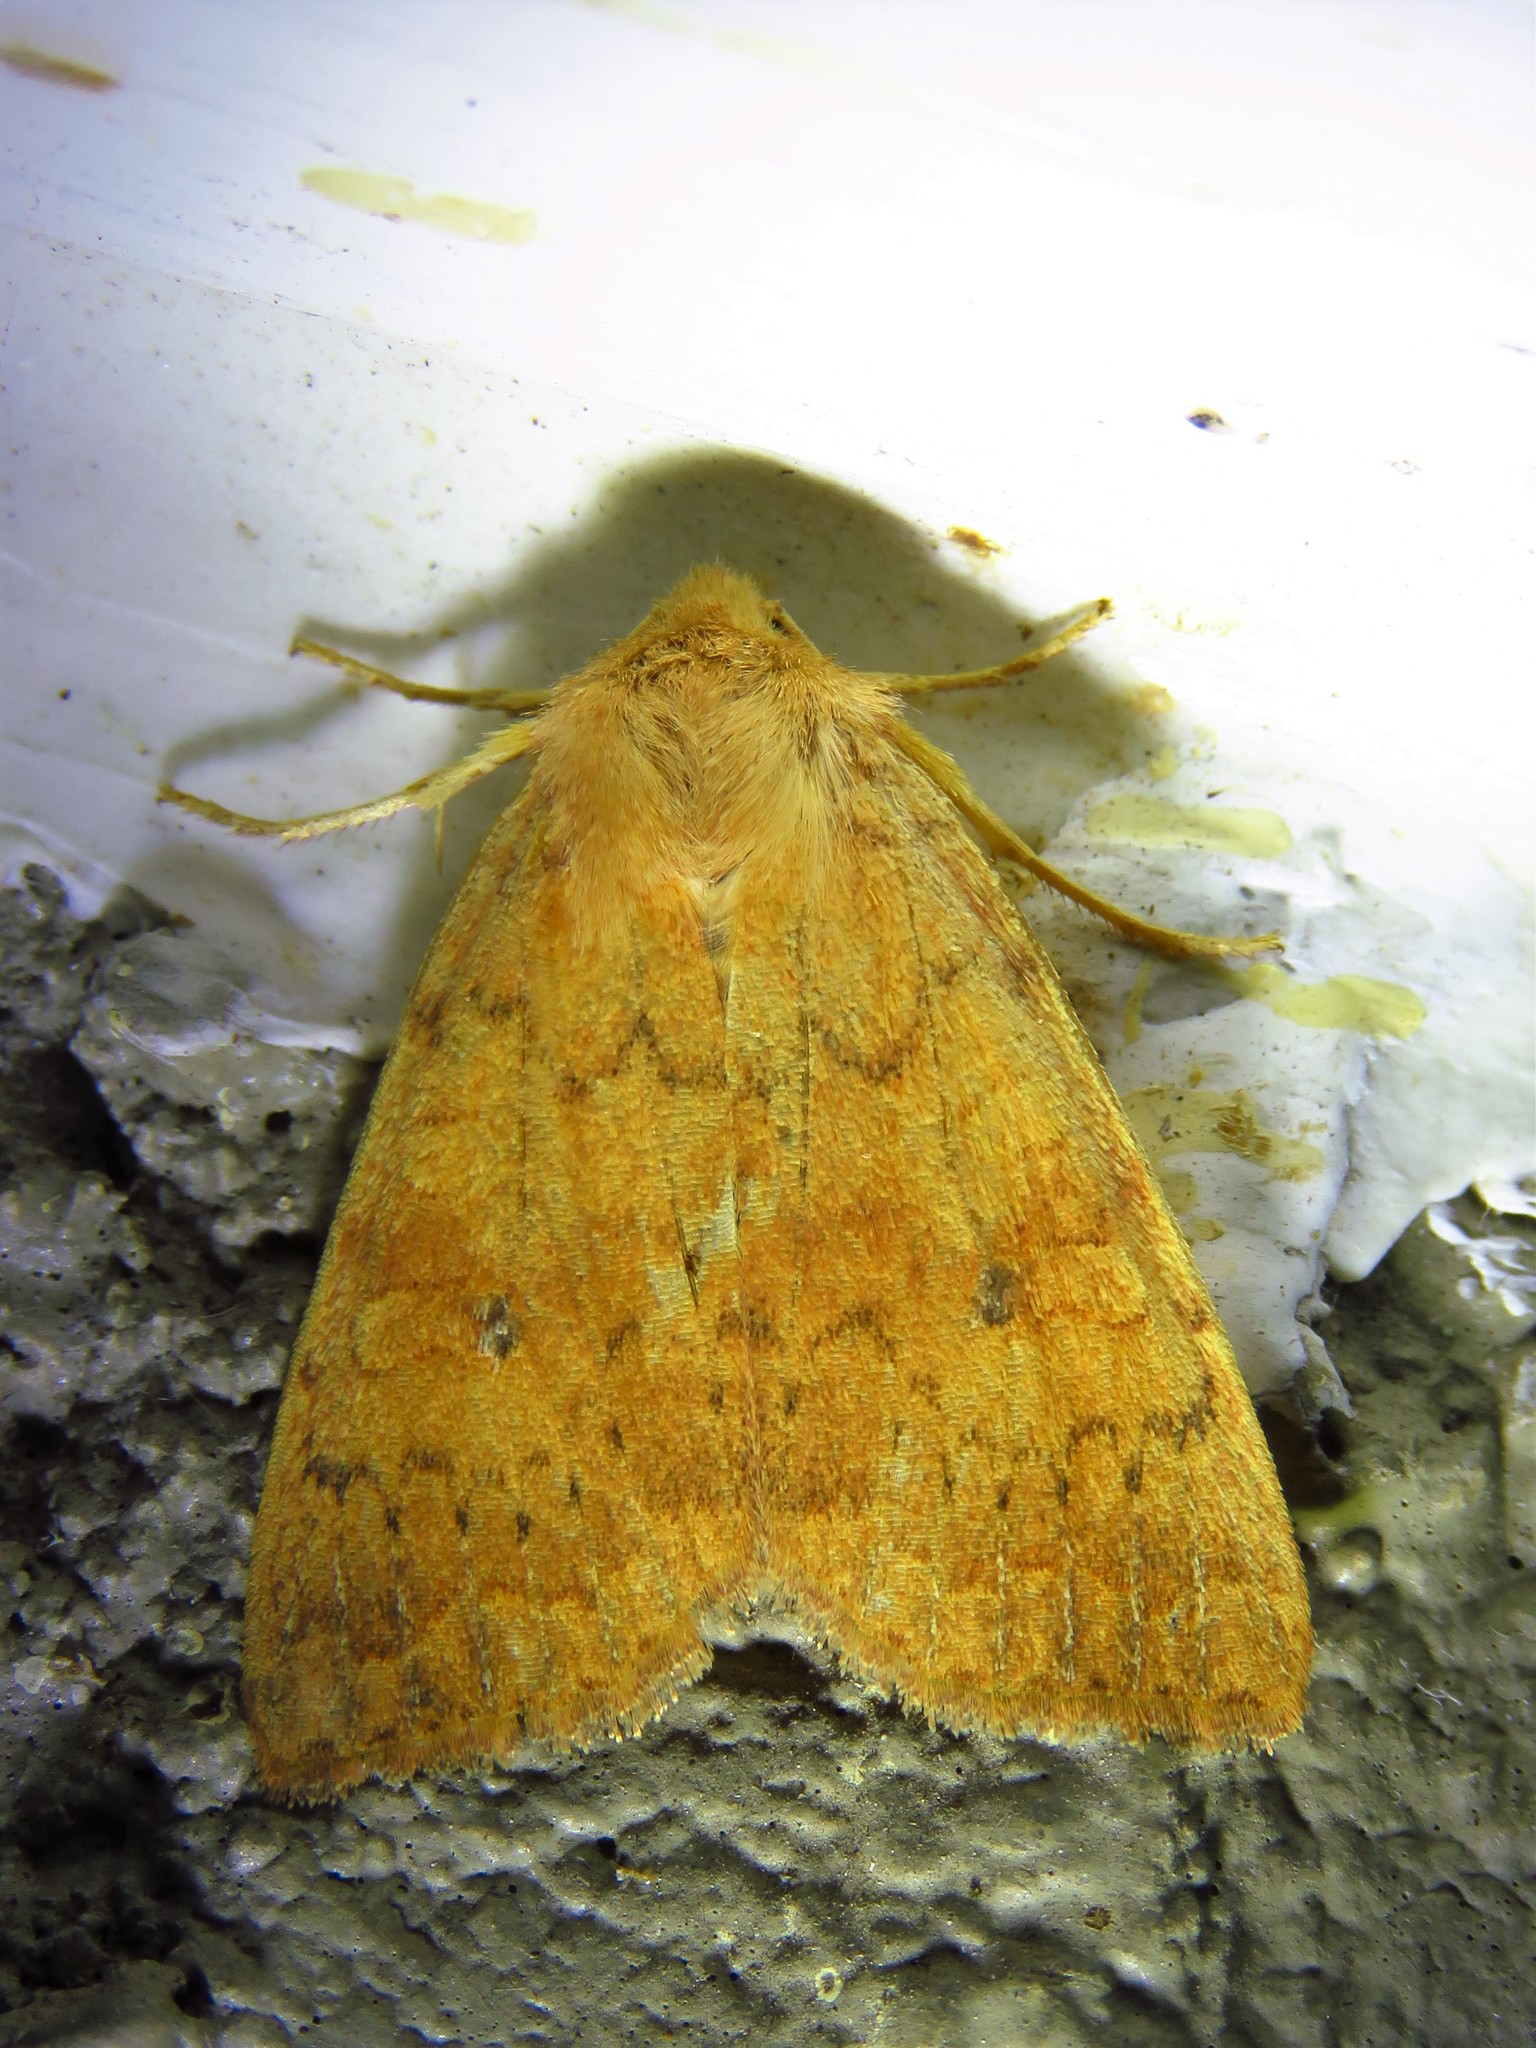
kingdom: Animalia
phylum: Arthropoda
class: Insecta
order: Lepidoptera
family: Noctuidae
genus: Agrochola
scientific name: Agrochola bicolorago
